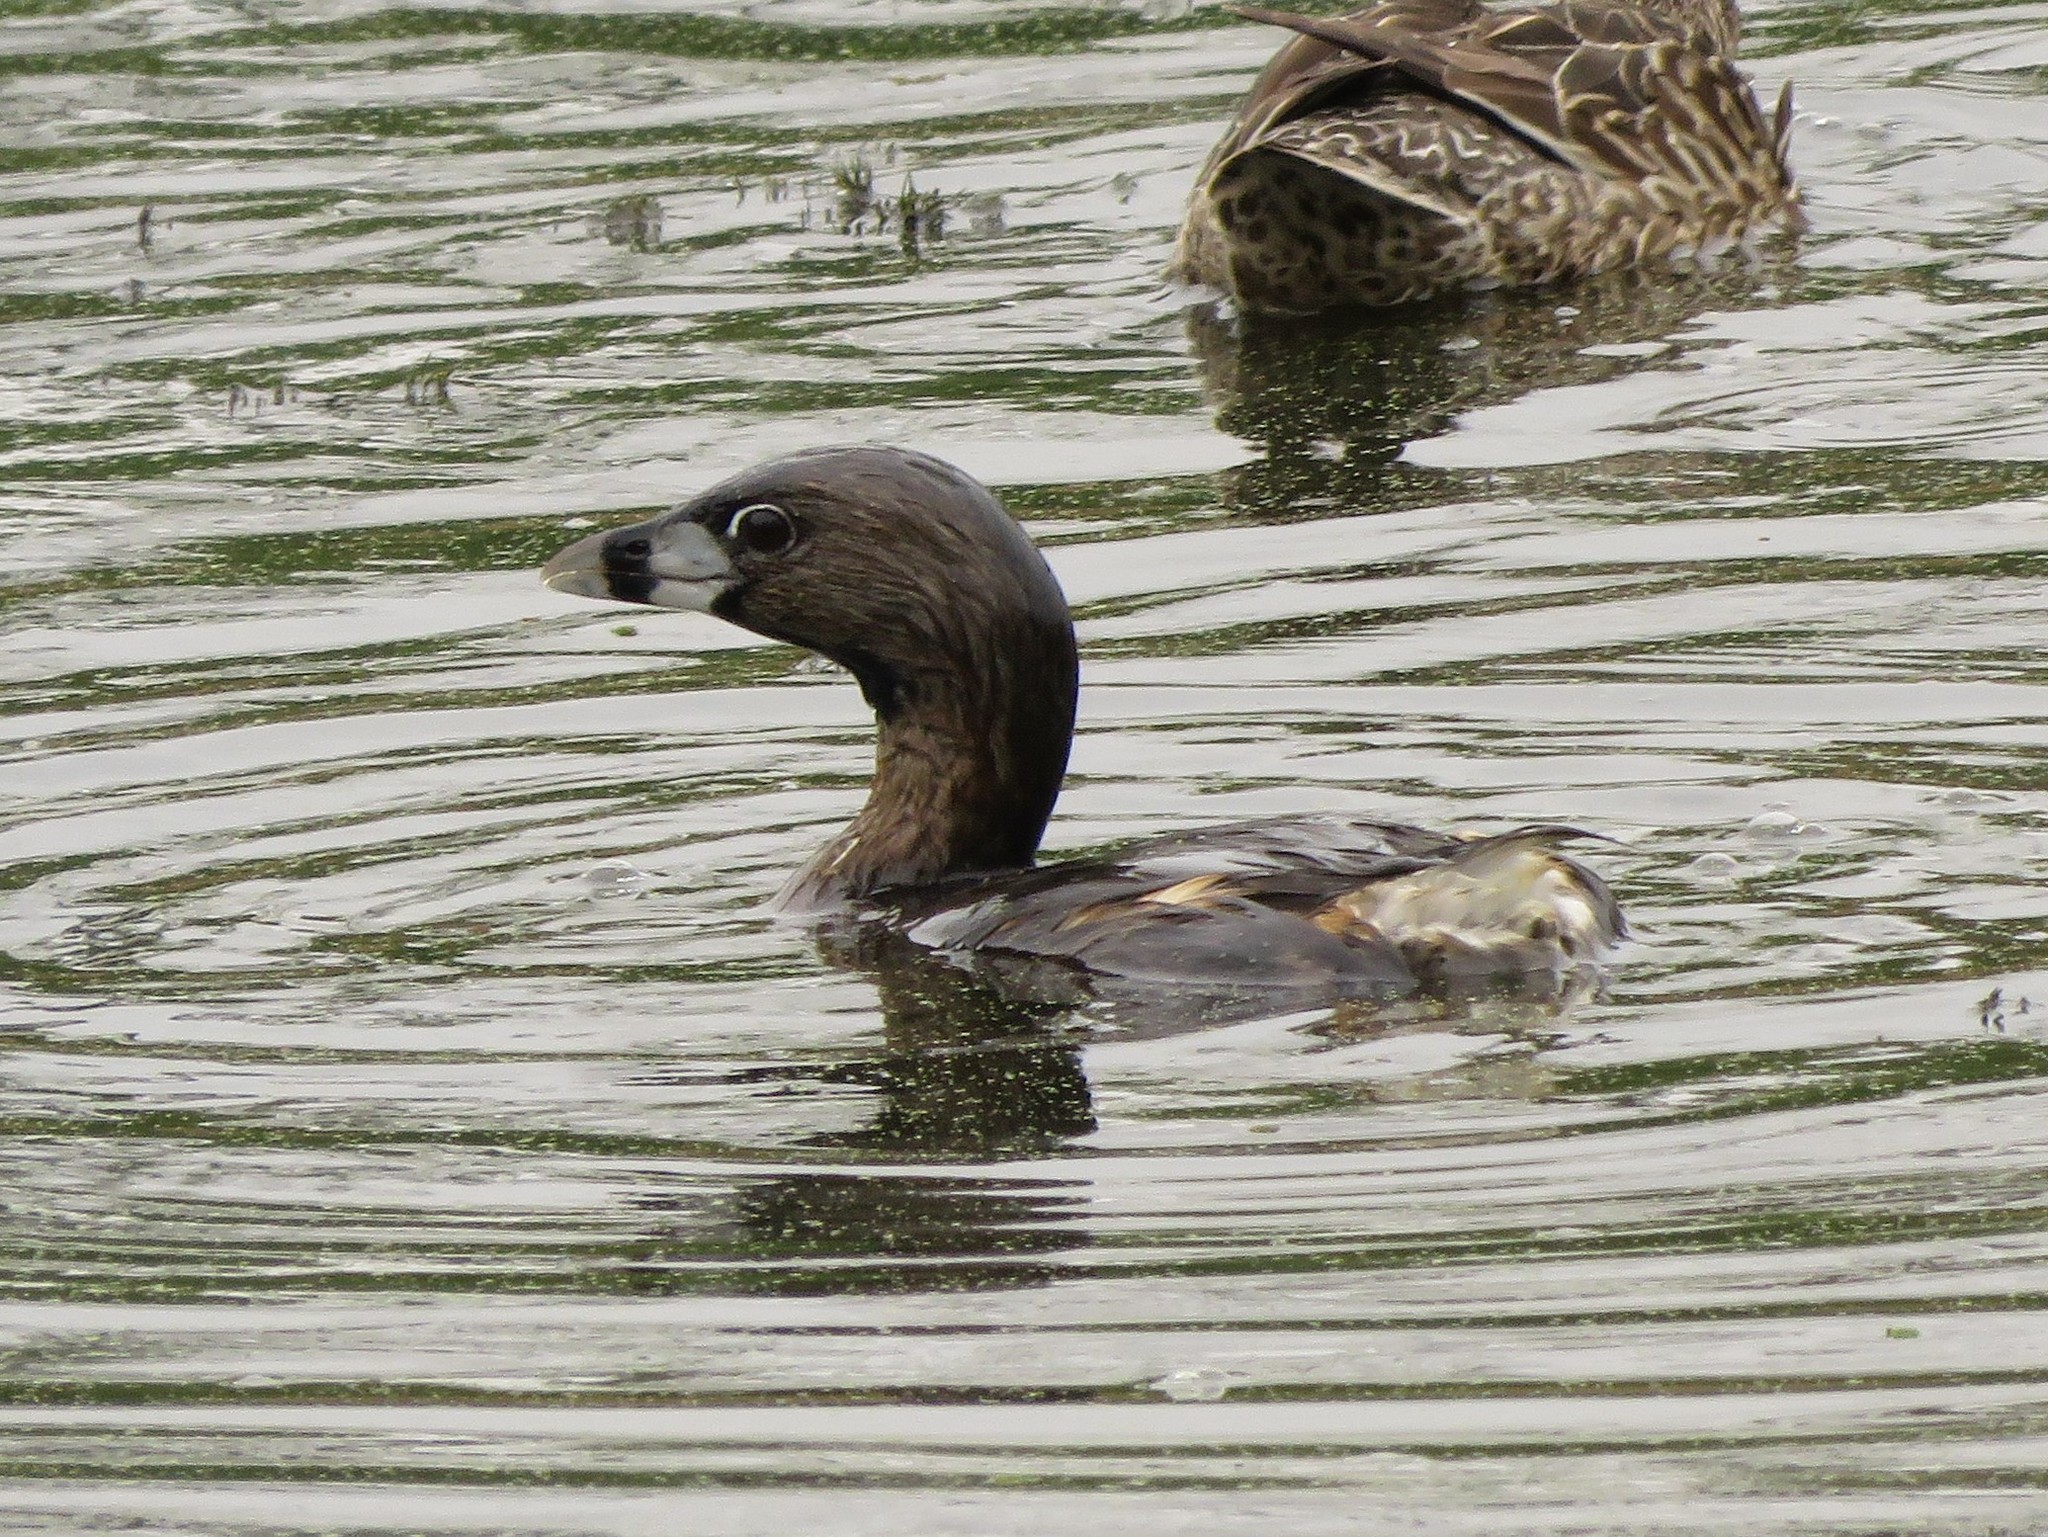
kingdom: Animalia
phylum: Chordata
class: Aves
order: Podicipediformes
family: Podicipedidae
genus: Podilymbus
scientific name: Podilymbus podiceps
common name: Pied-billed grebe
